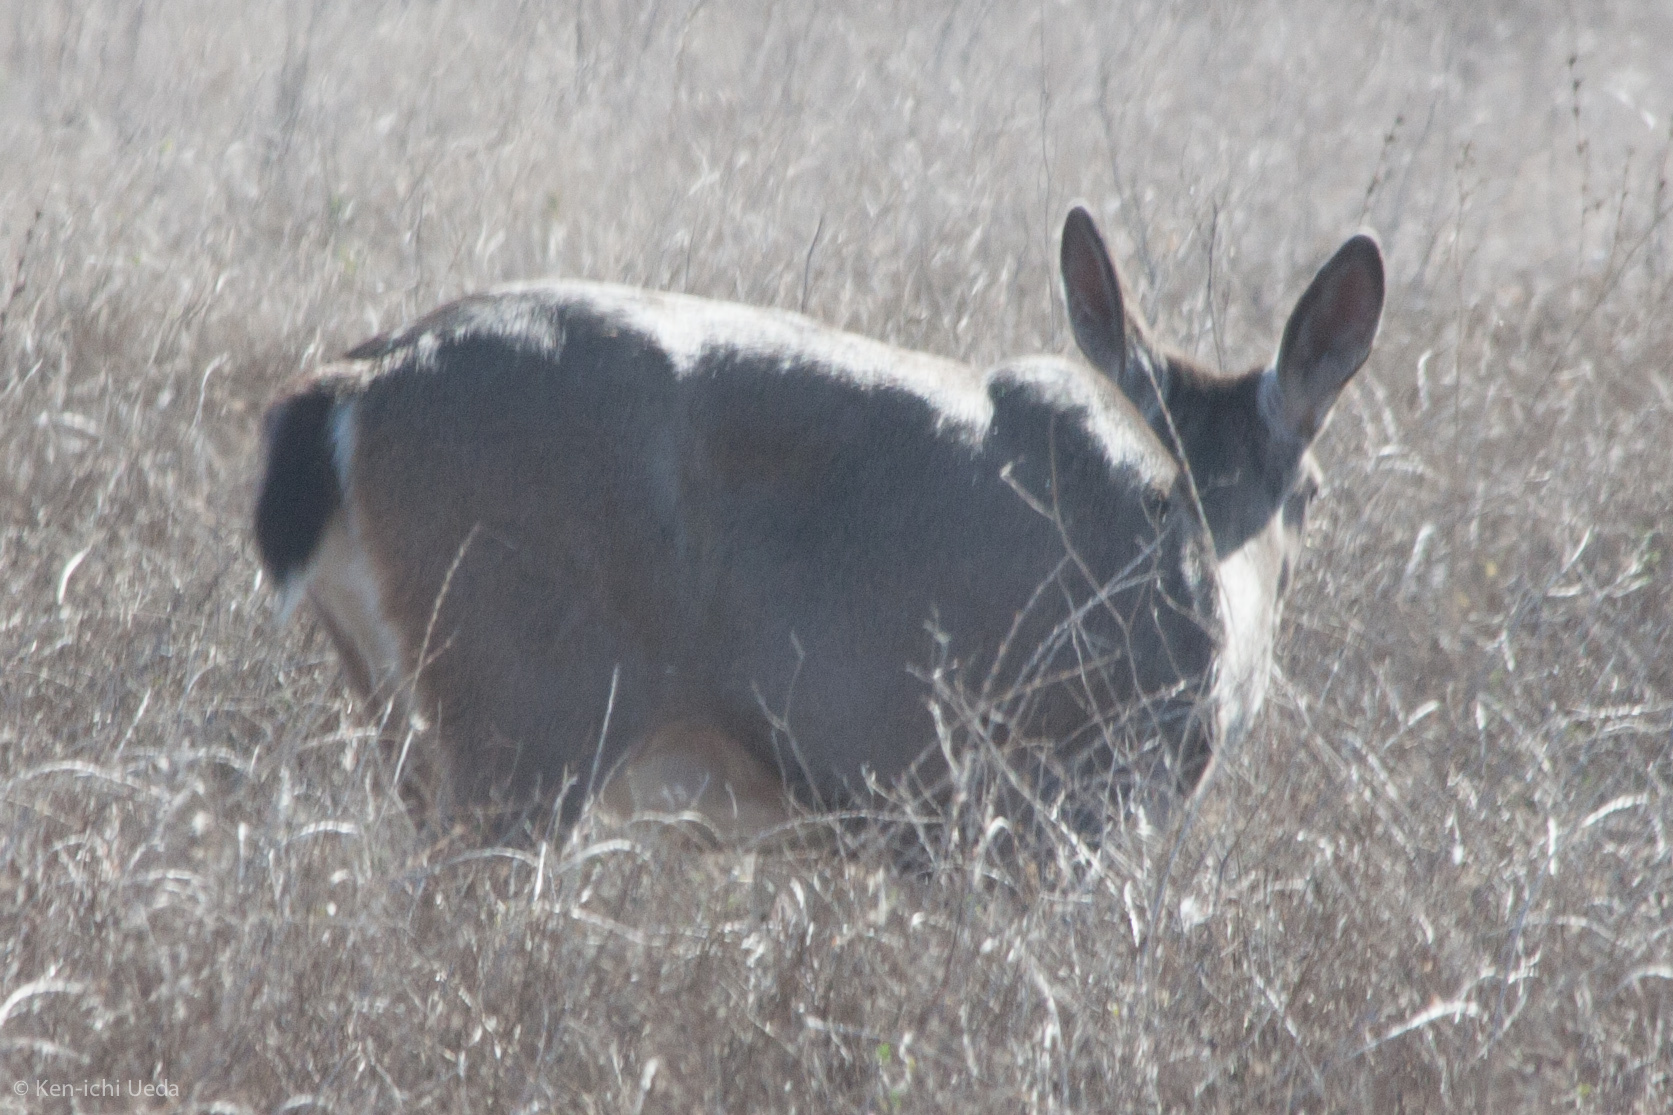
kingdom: Animalia
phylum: Chordata
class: Mammalia
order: Artiodactyla
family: Cervidae
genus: Odocoileus
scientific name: Odocoileus hemionus
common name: Mule deer
